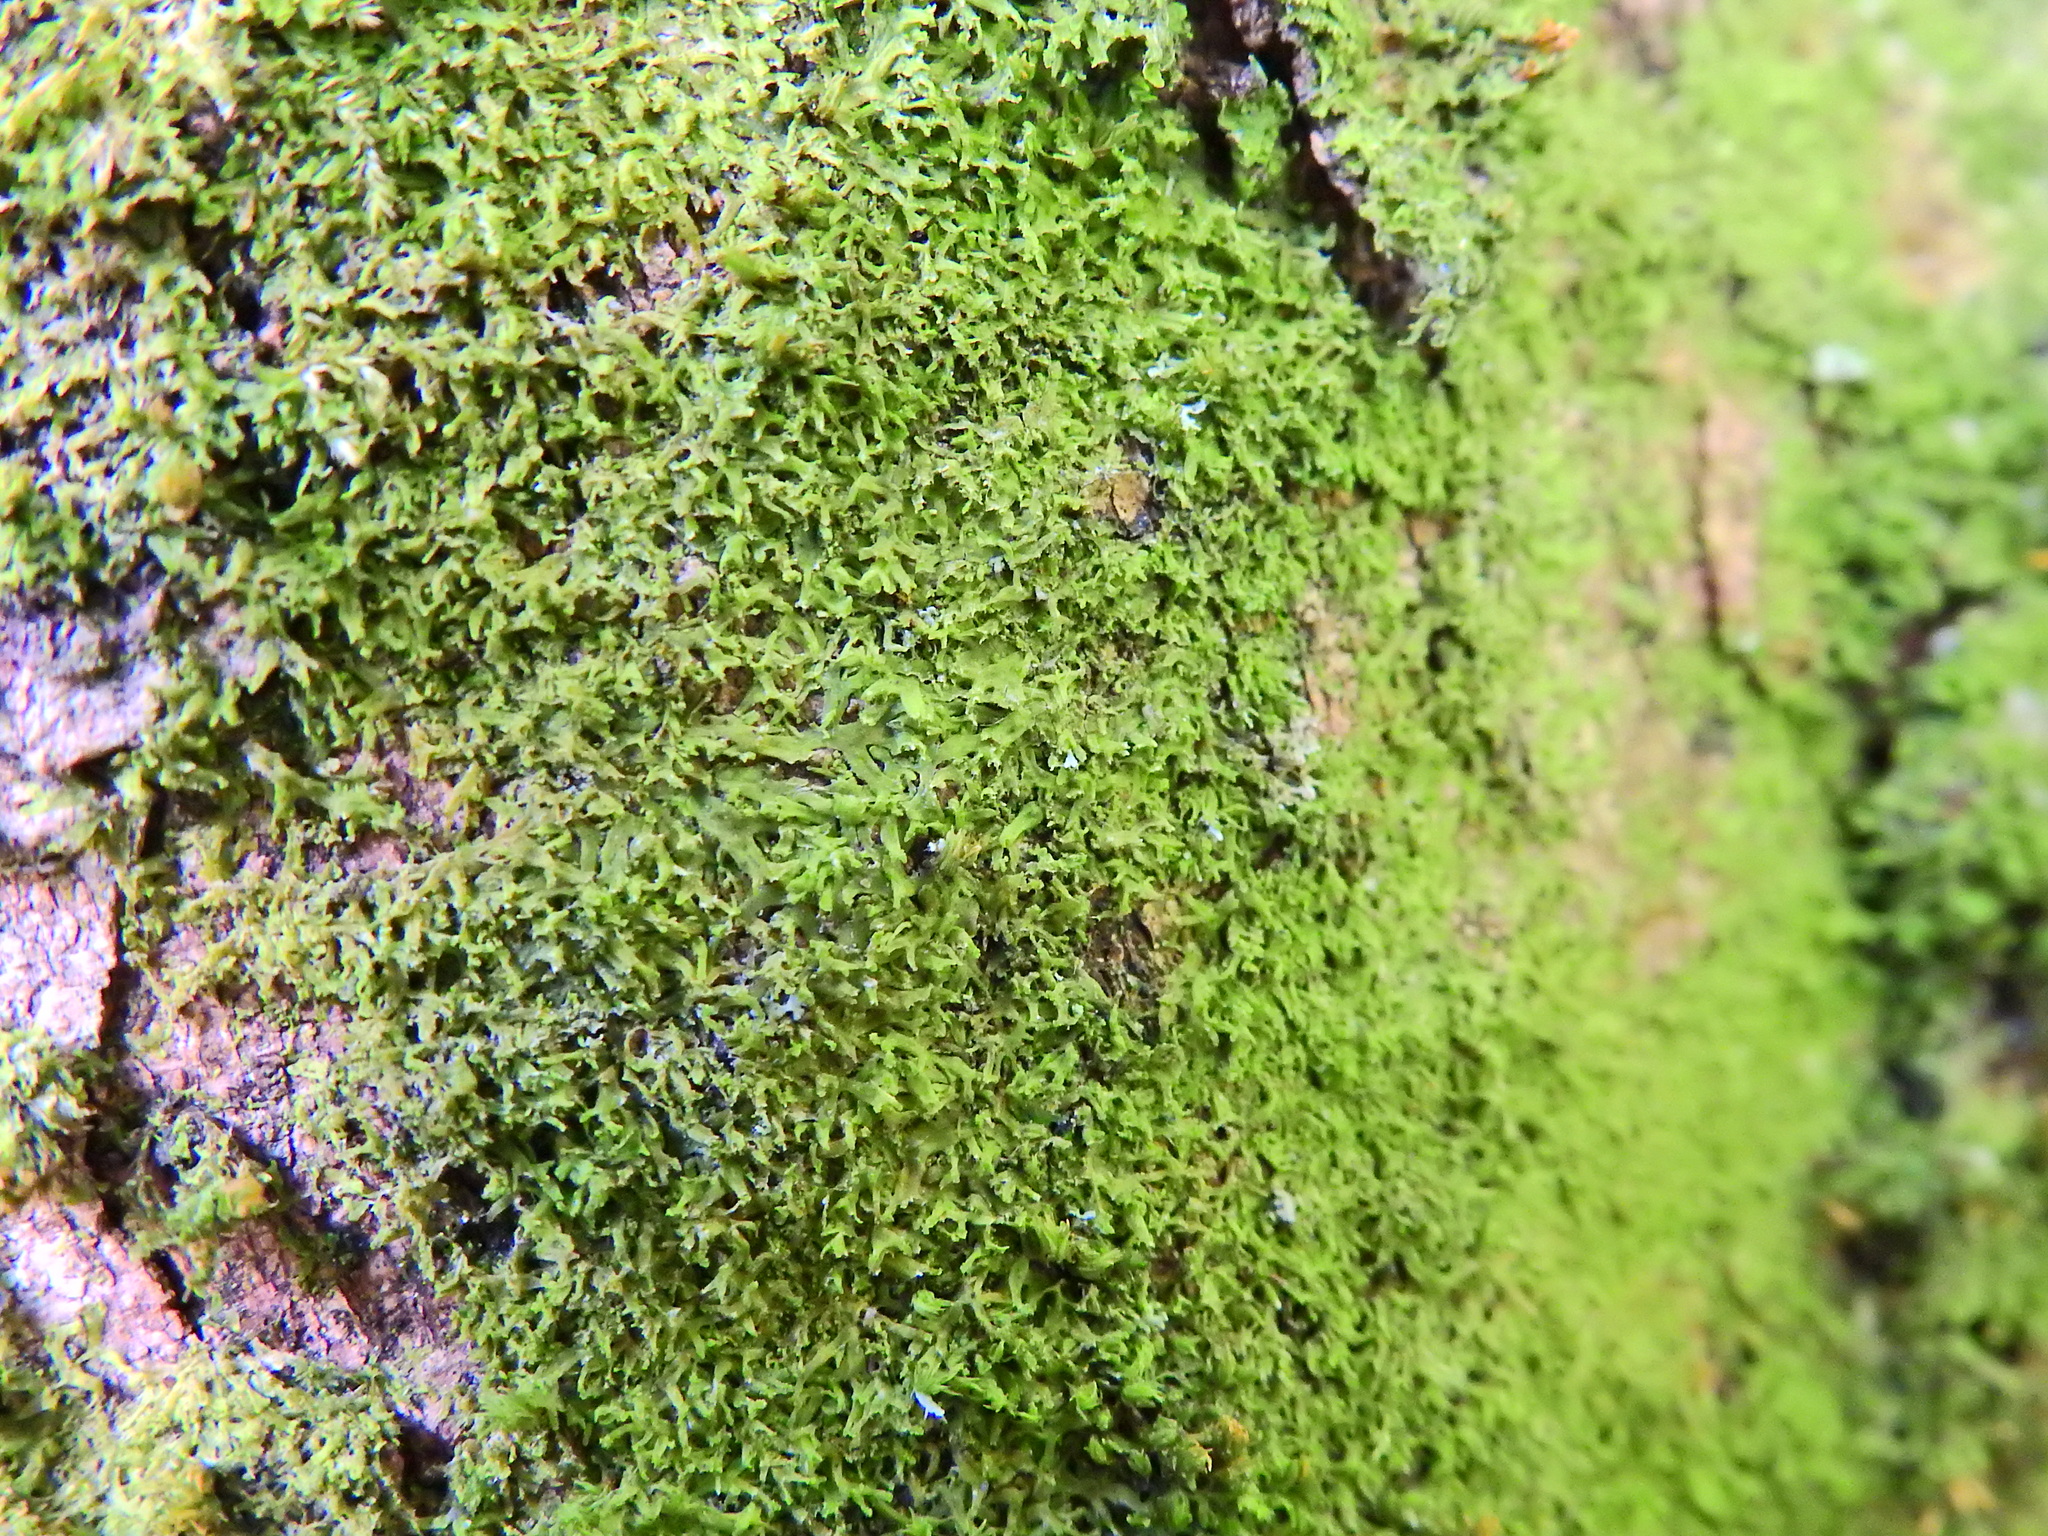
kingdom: Plantae
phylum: Marchantiophyta
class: Jungermanniopsida
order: Metzgeriales
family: Metzgeriaceae
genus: Metzgeria
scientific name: Metzgeria violacea
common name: Blueish veilwort
